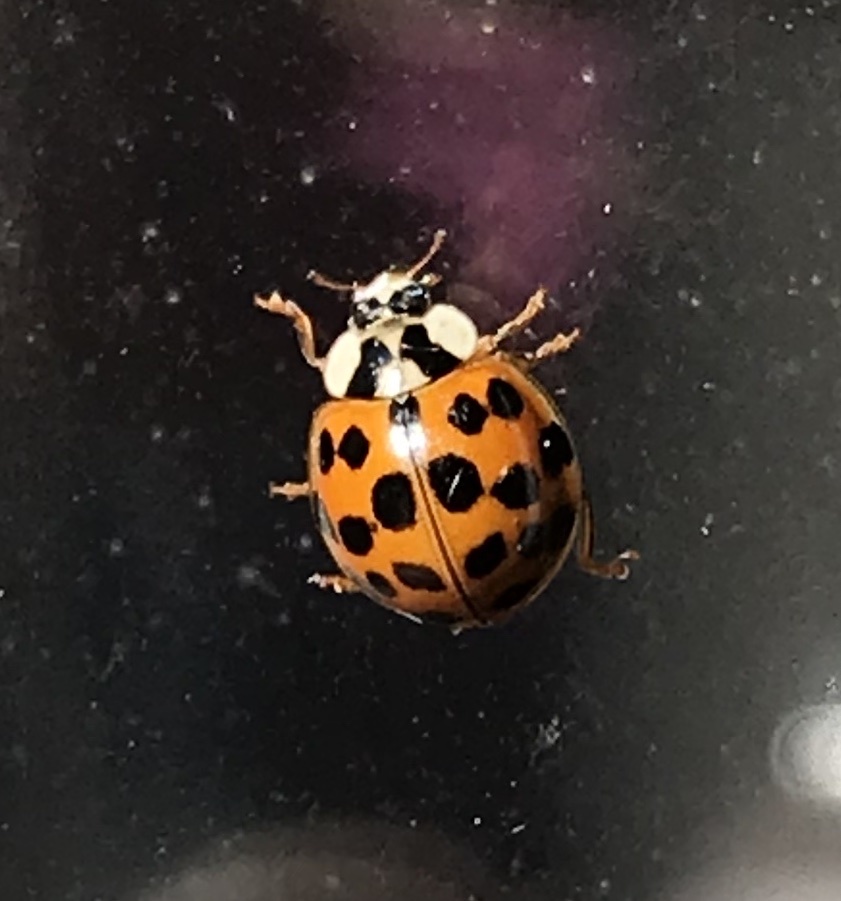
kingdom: Animalia
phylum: Arthropoda
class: Insecta
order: Coleoptera
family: Coccinellidae
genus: Harmonia
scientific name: Harmonia axyridis
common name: Harlequin ladybird
